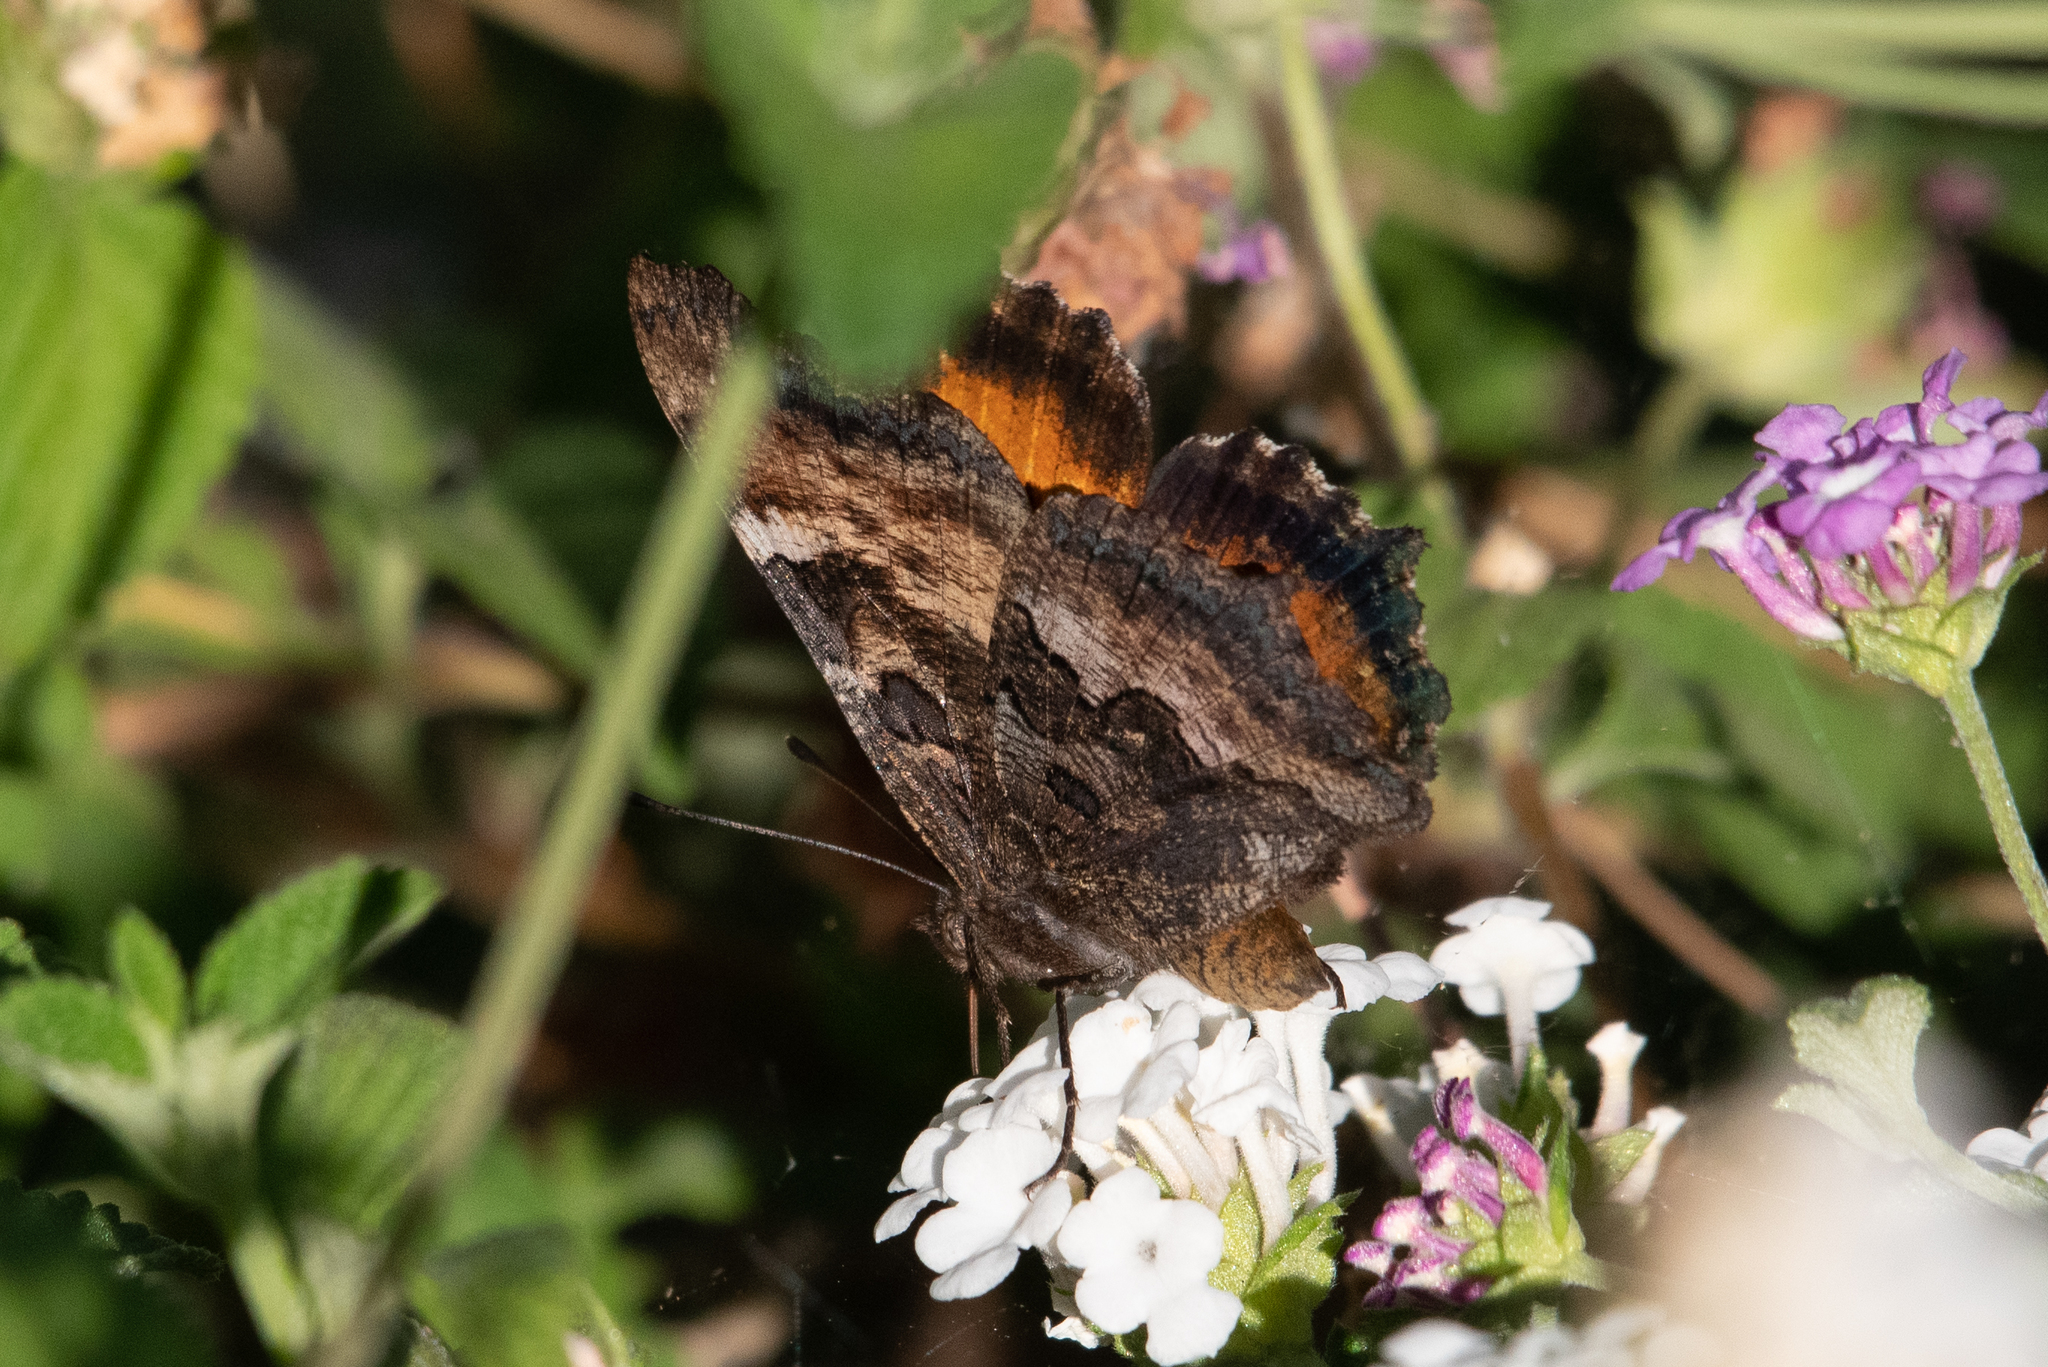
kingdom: Animalia
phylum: Arthropoda
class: Insecta
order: Lepidoptera
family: Nymphalidae
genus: Nymphalis
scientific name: Nymphalis californica
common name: California tortoiseshell
